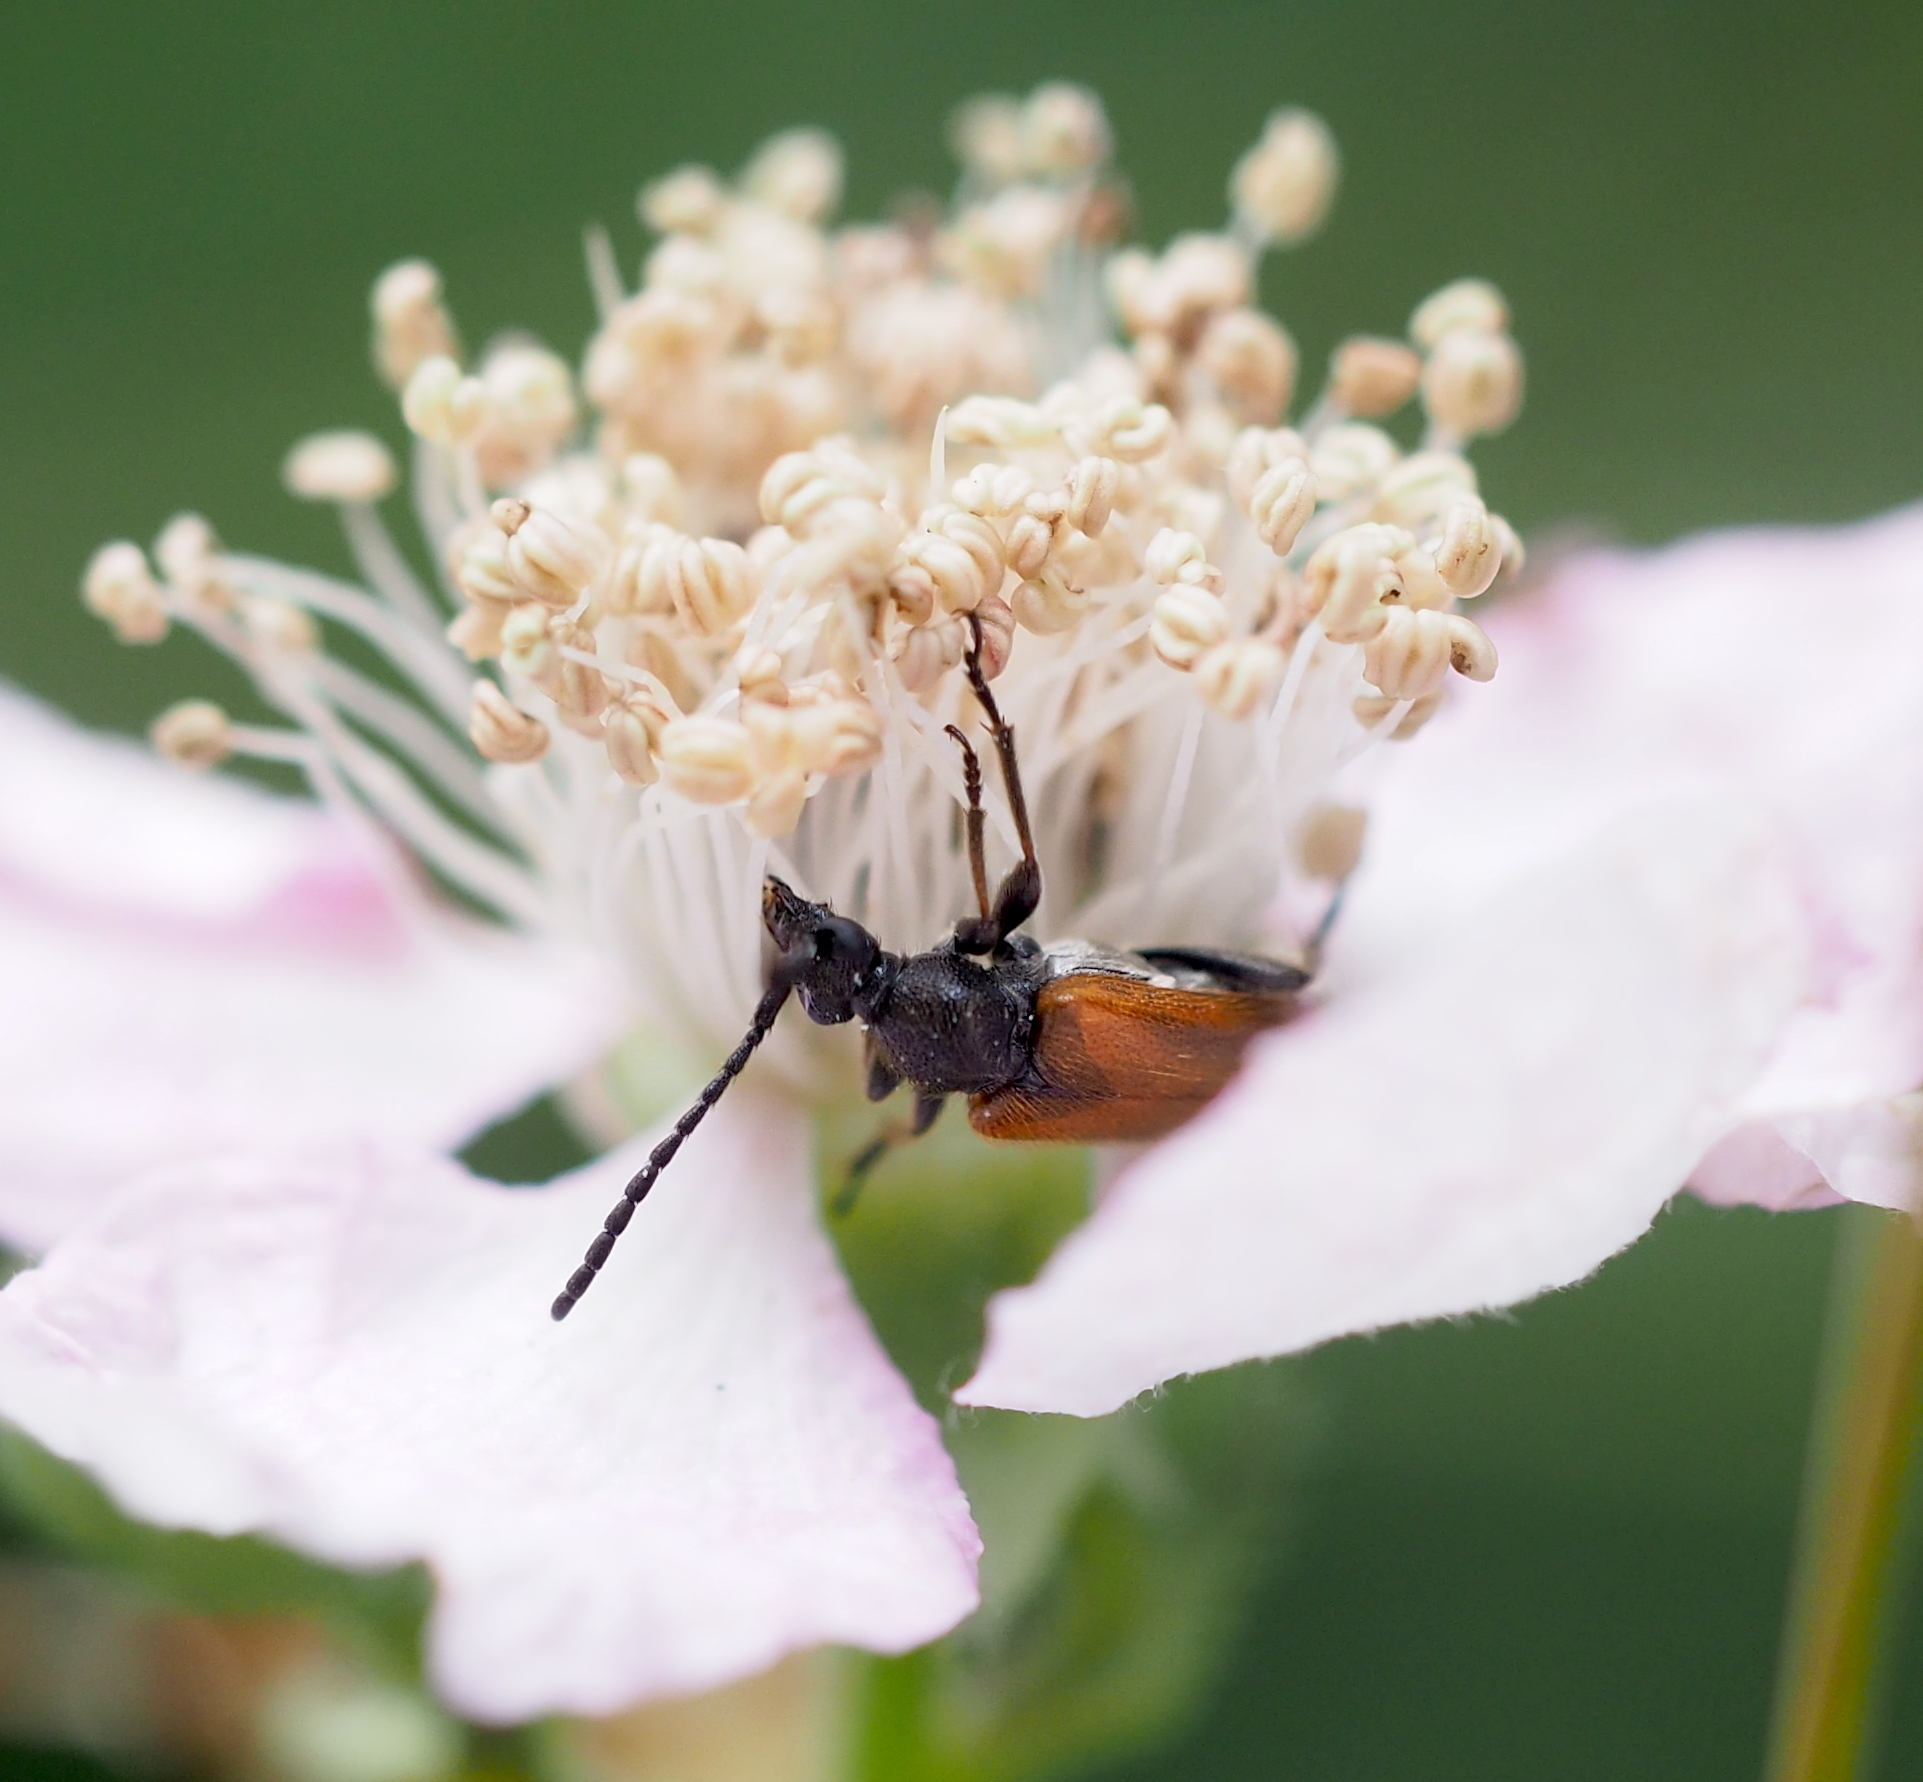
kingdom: Animalia
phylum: Arthropoda
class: Insecta
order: Coleoptera
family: Cerambycidae
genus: Pseudovadonia
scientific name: Pseudovadonia livida
